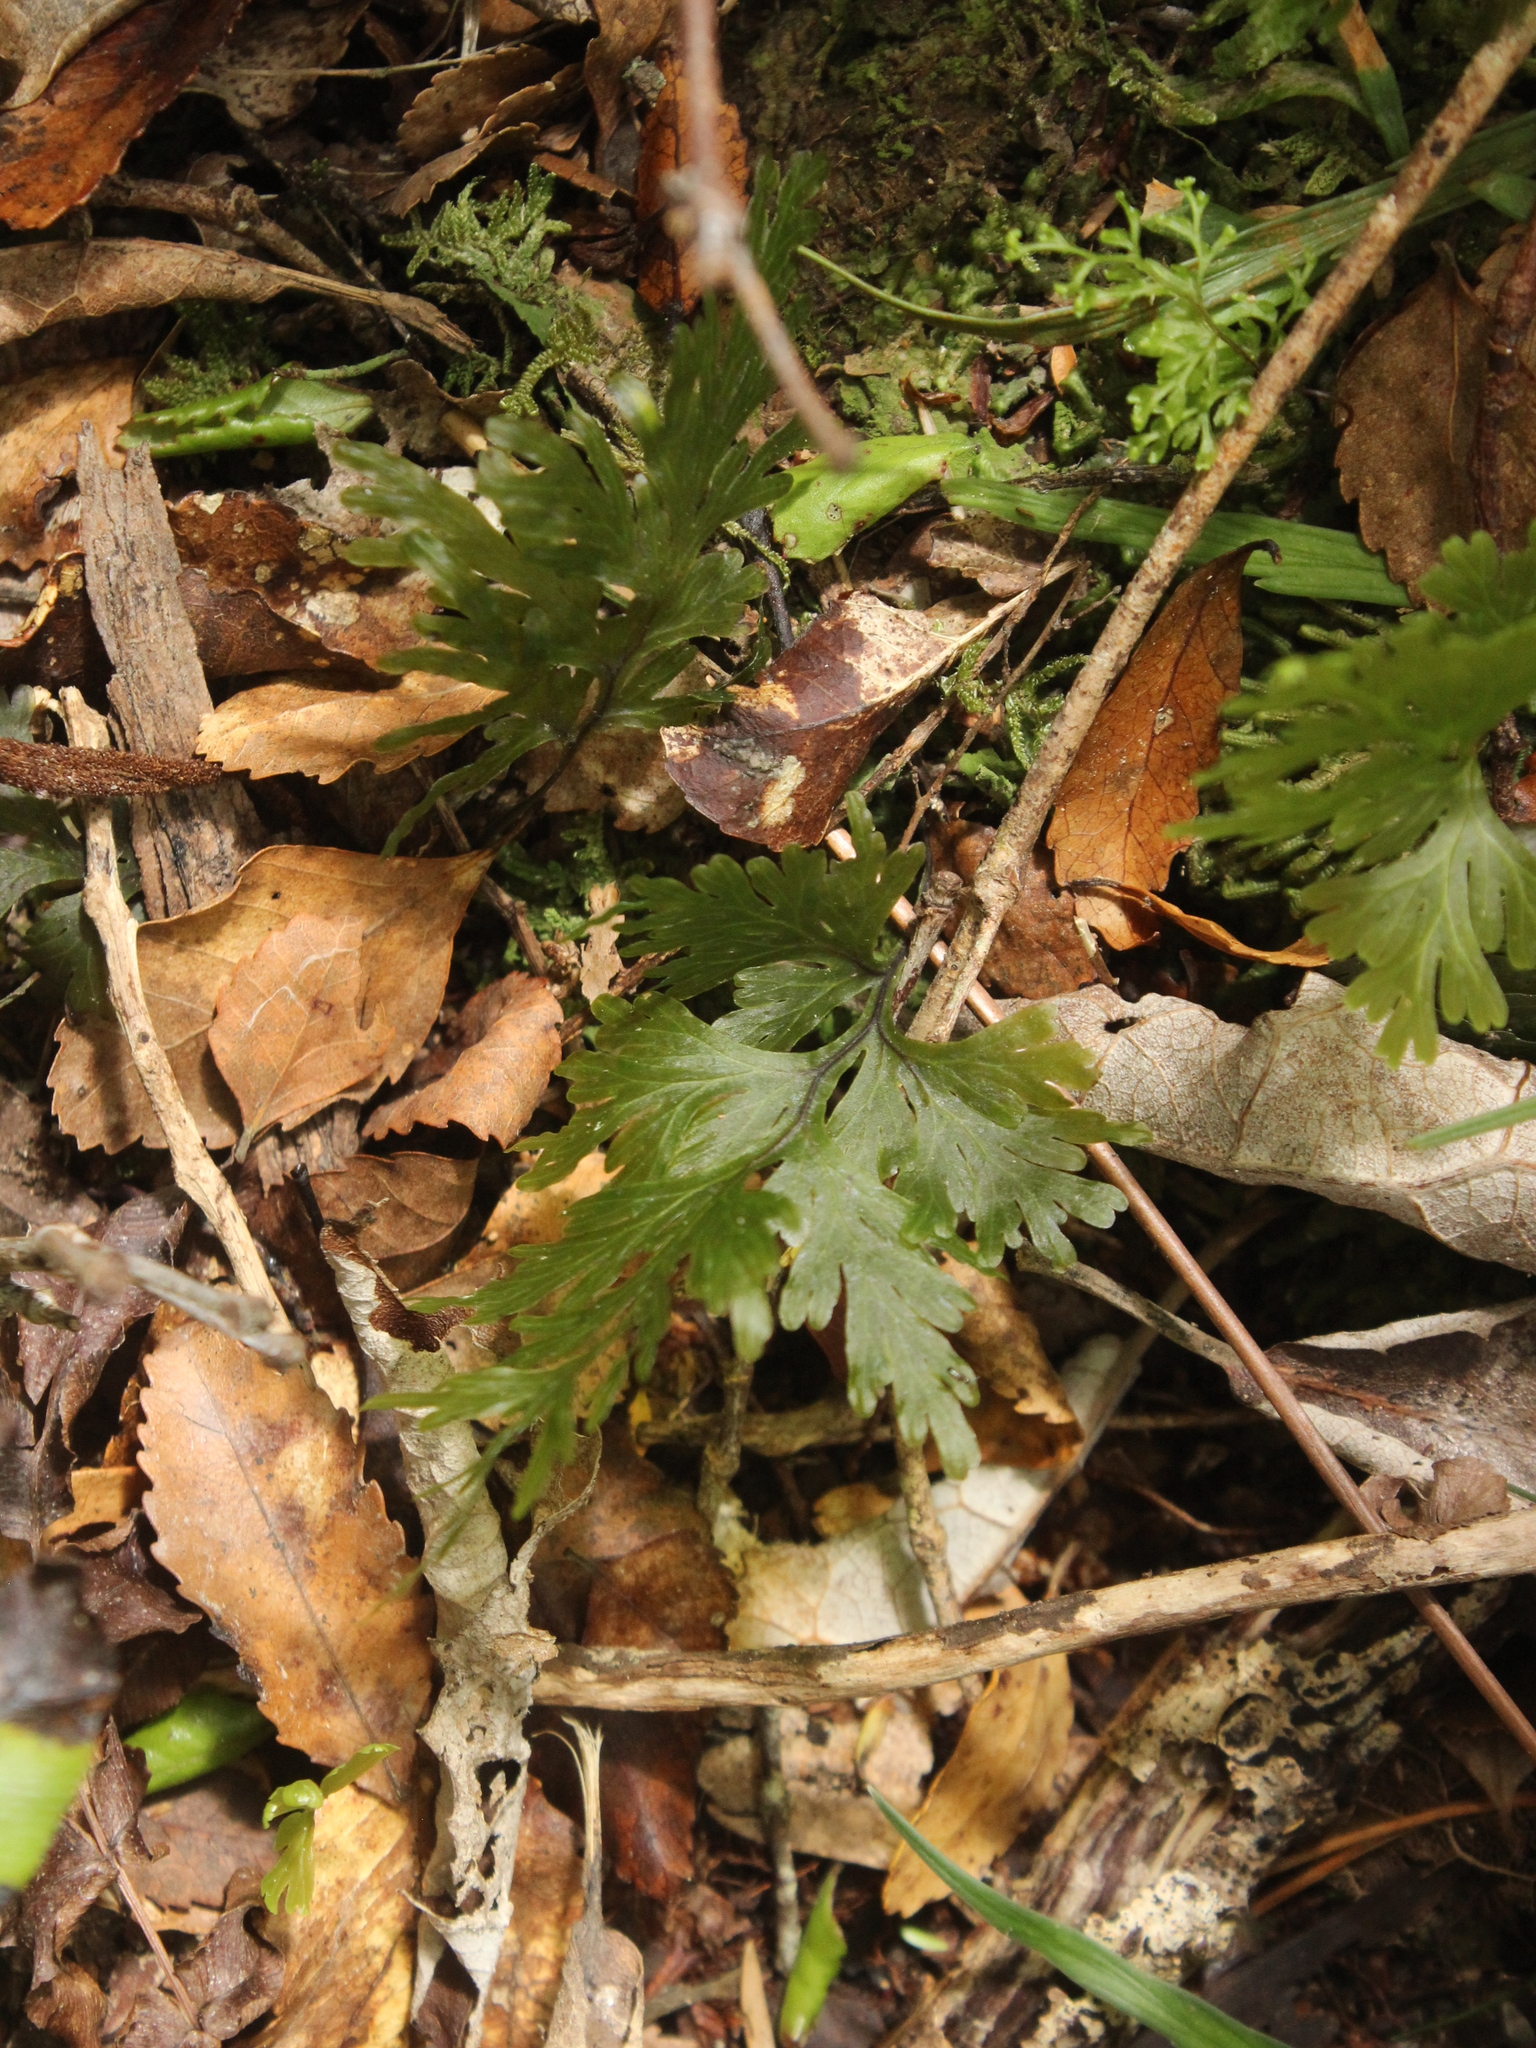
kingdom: Plantae
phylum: Tracheophyta
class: Polypodiopsida
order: Hymenophyllales
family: Hymenophyllaceae
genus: Hymenophyllum
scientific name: Hymenophyllum dilatatum
